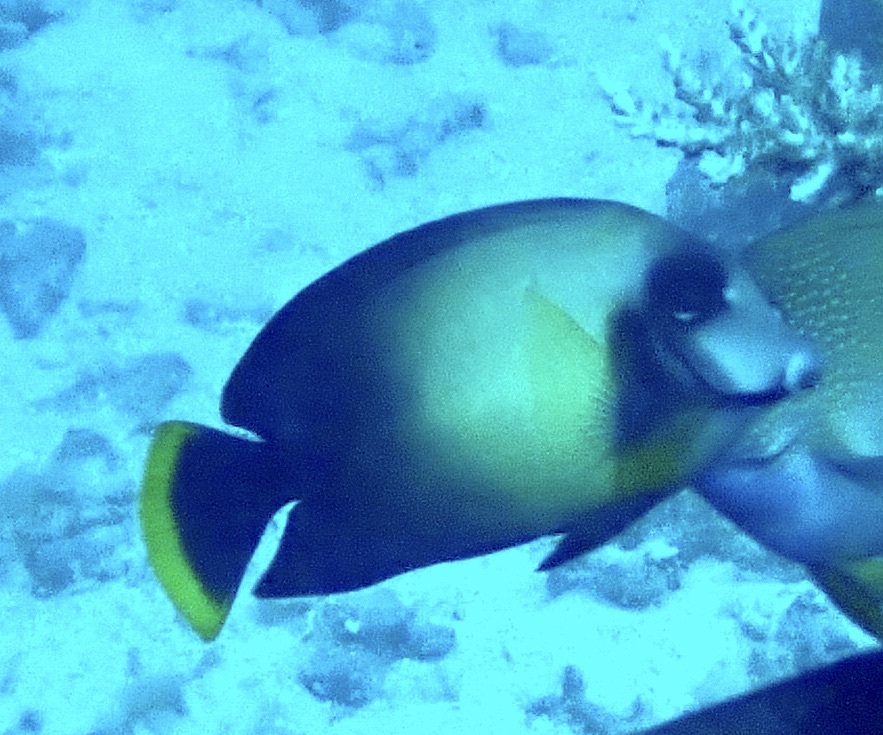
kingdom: Animalia
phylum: Chordata
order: Perciformes
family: Acanthuridae
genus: Acanthurus
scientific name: Acanthurus pyroferus
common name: Chocolate surgeonfish
